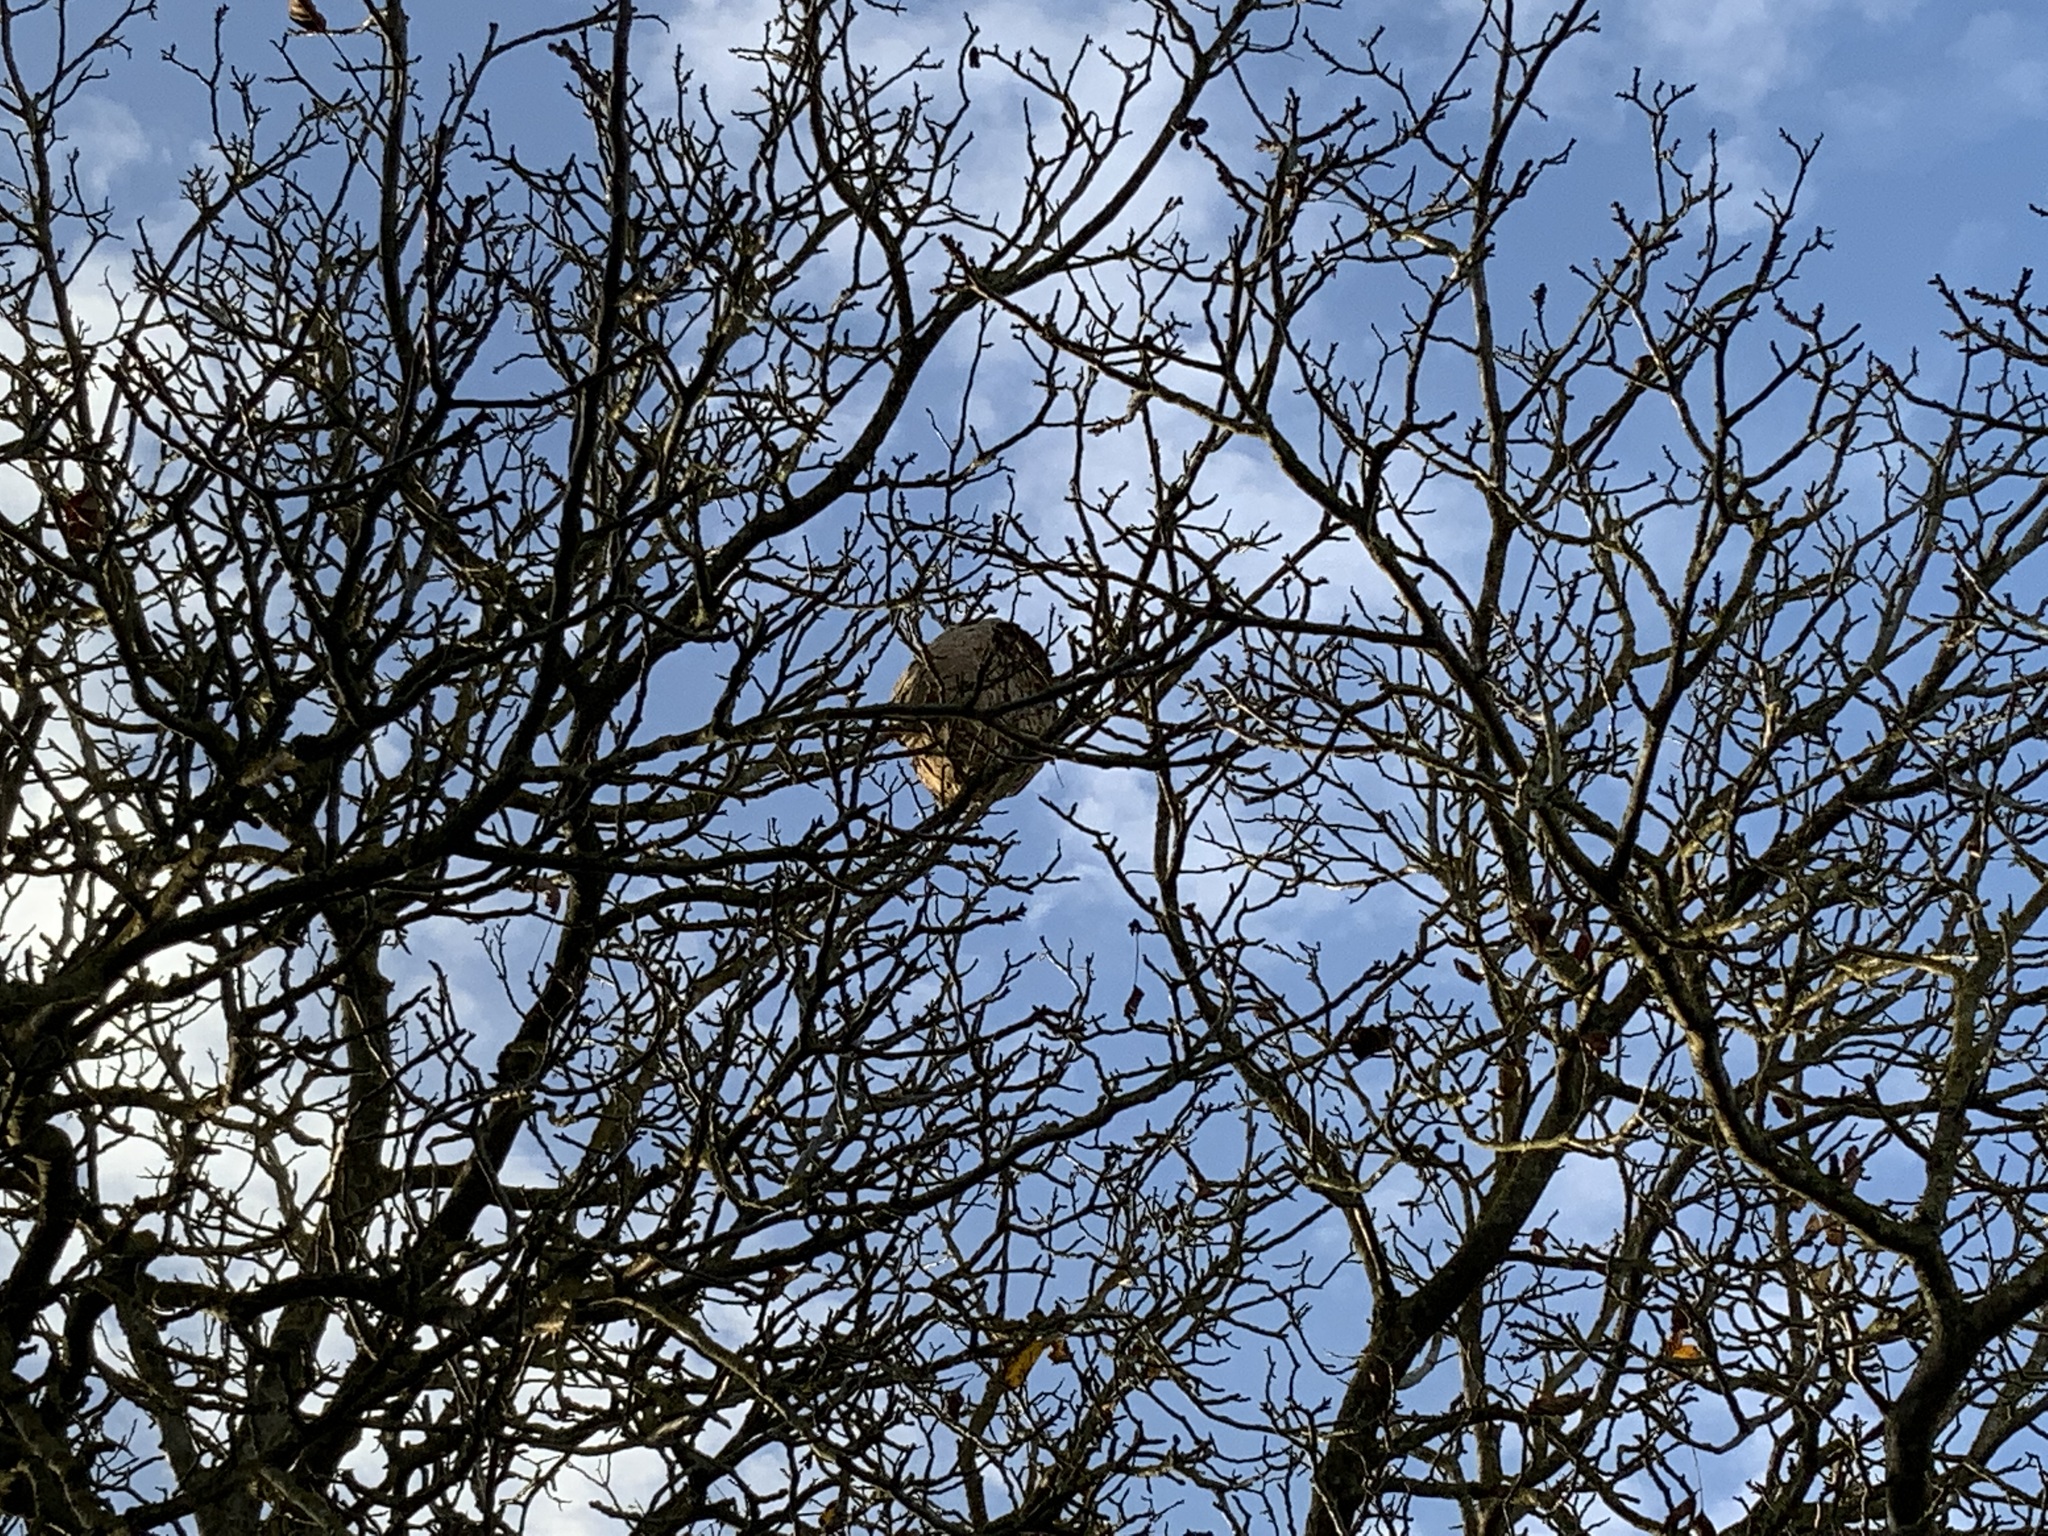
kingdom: Animalia
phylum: Arthropoda
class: Insecta
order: Hymenoptera
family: Vespidae
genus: Vespa
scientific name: Vespa velutina
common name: Asian hornet
